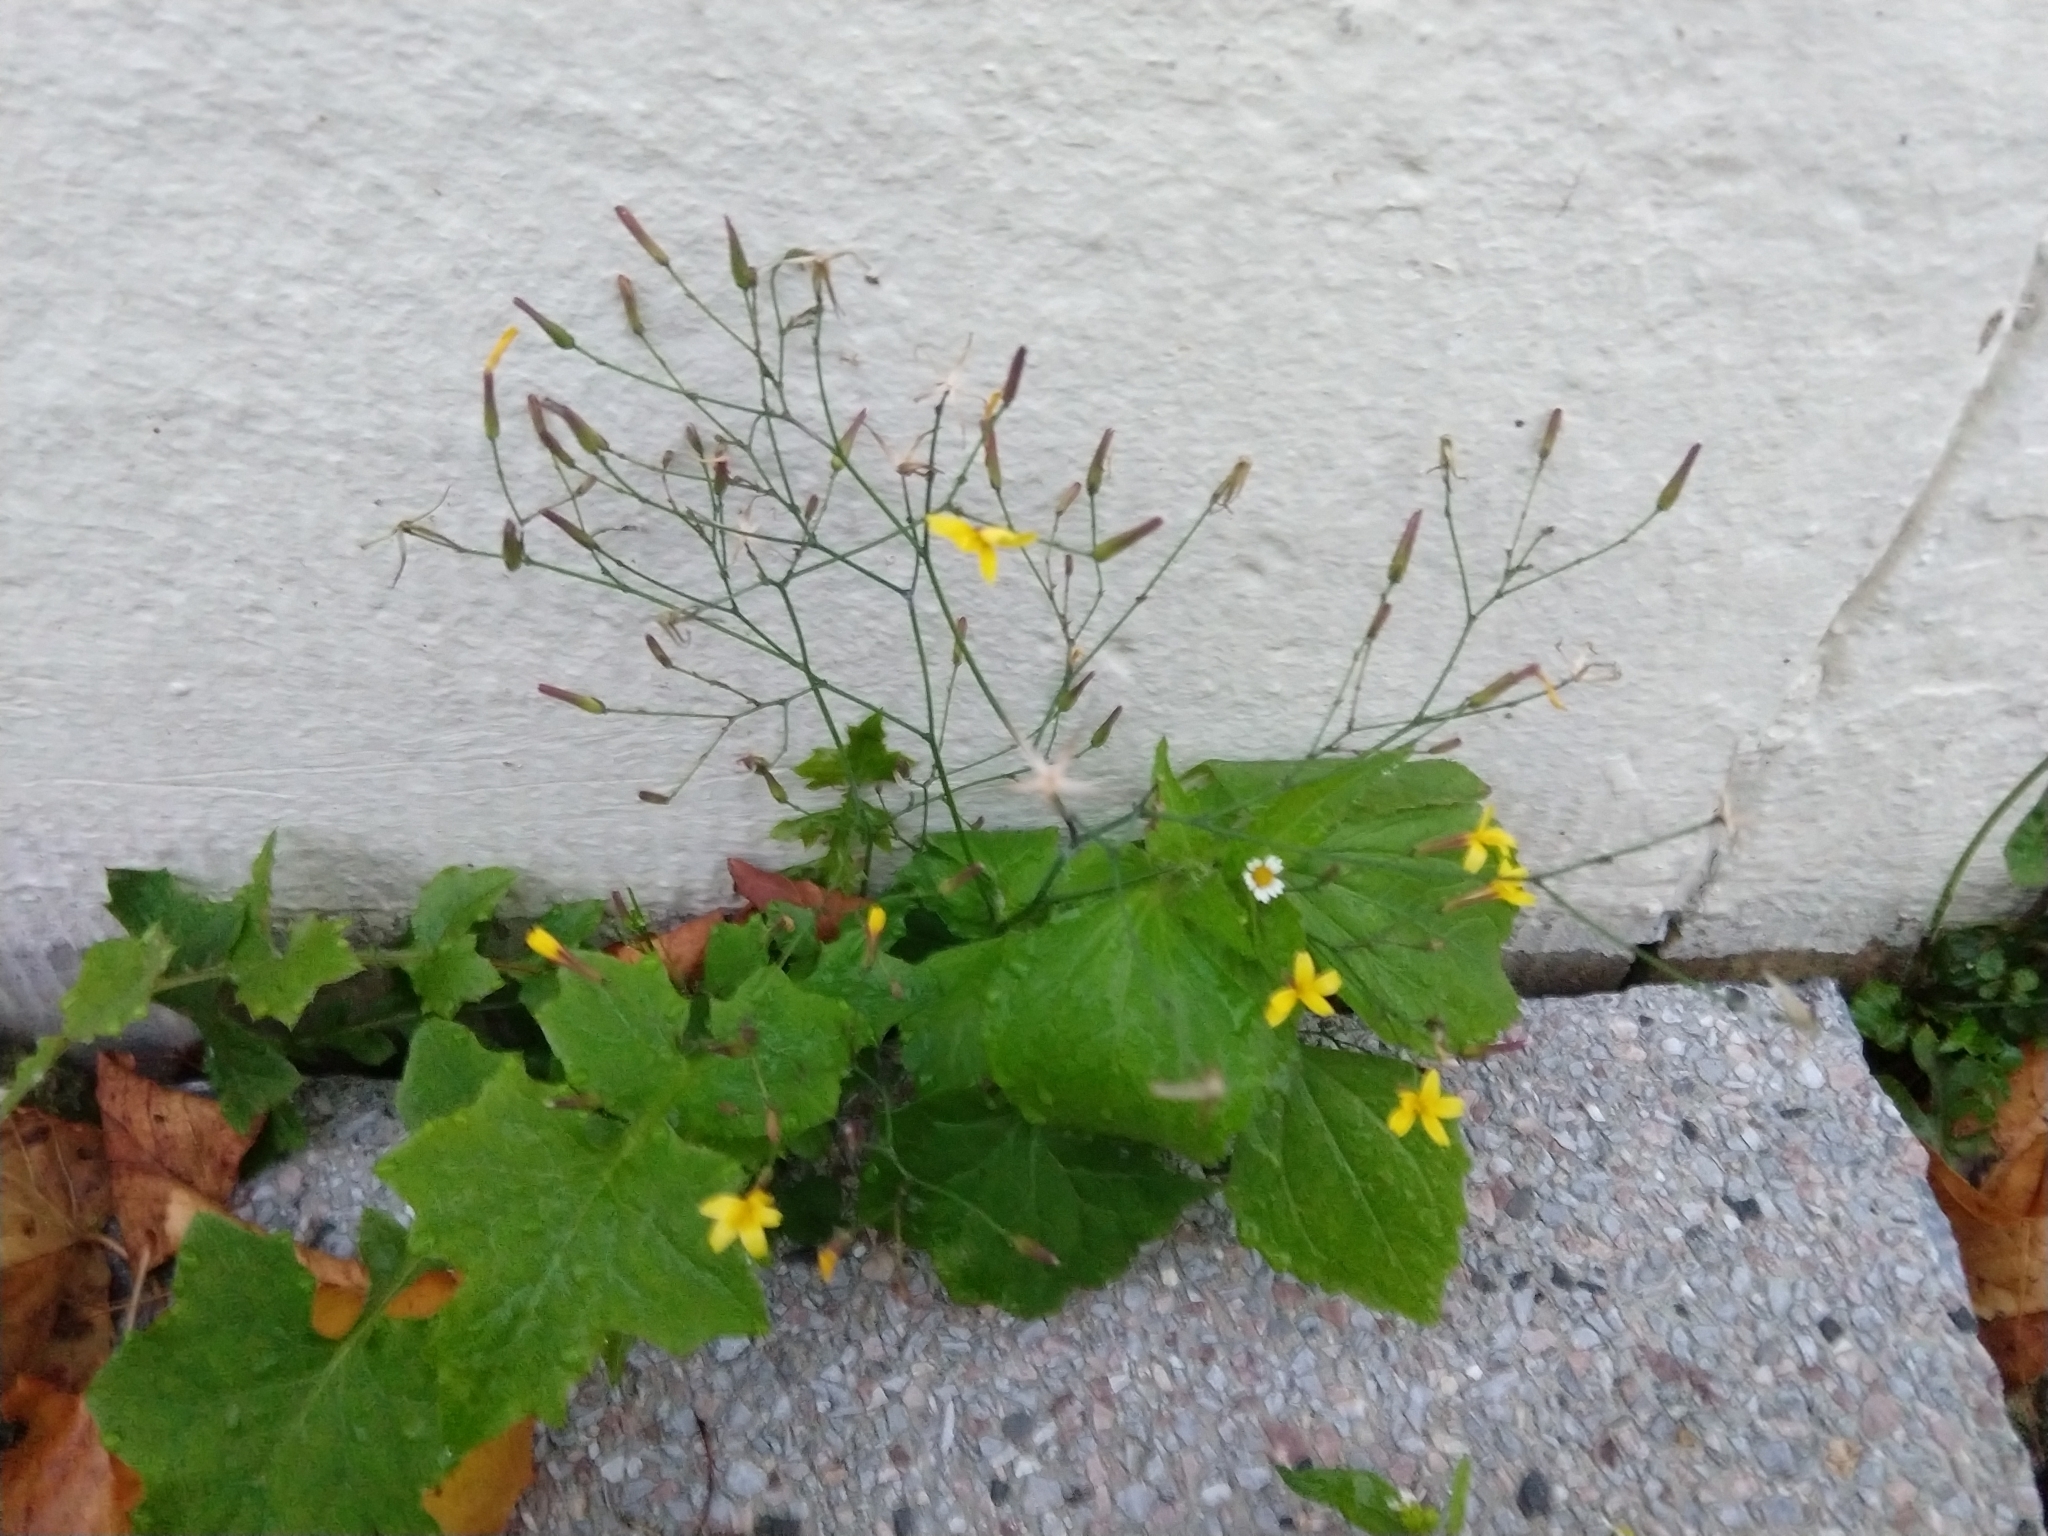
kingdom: Plantae
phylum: Tracheophyta
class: Magnoliopsida
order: Asterales
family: Asteraceae
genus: Mycelis
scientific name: Mycelis muralis
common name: Wall lettuce
